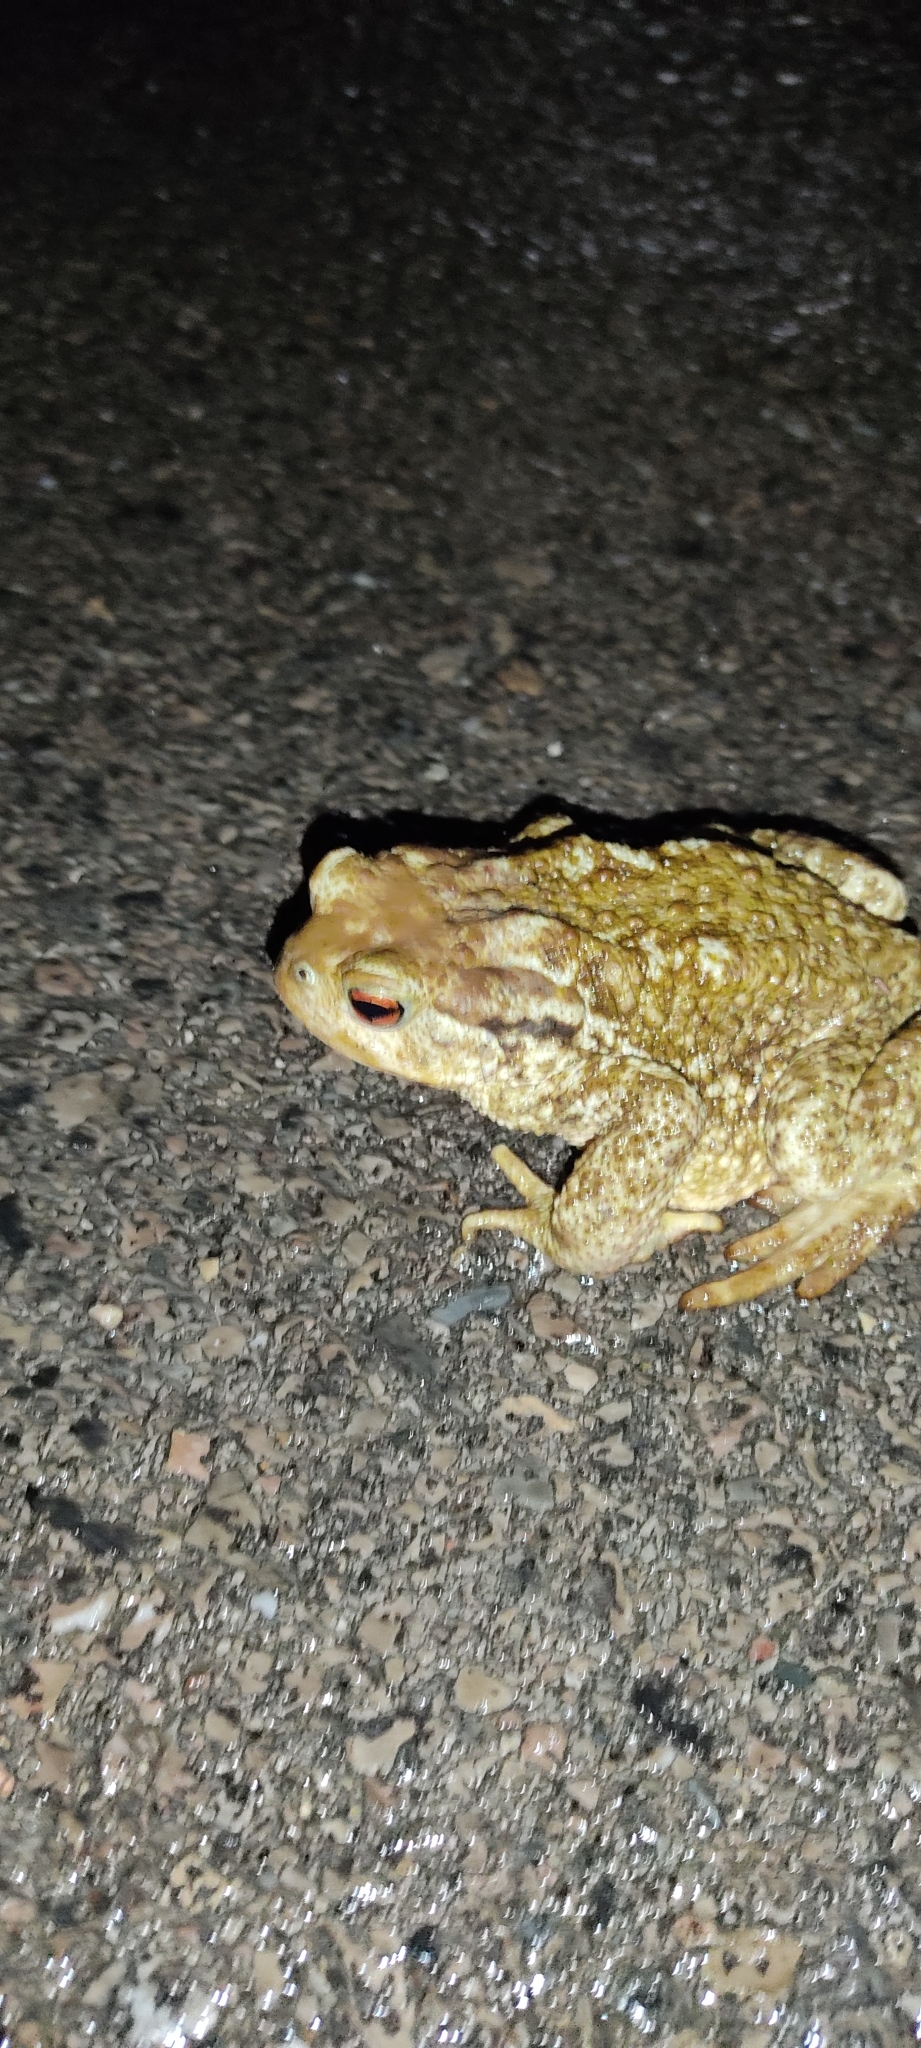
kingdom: Animalia
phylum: Chordata
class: Amphibia
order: Anura
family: Bufonidae
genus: Bufo
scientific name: Bufo spinosus
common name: Western common toad
